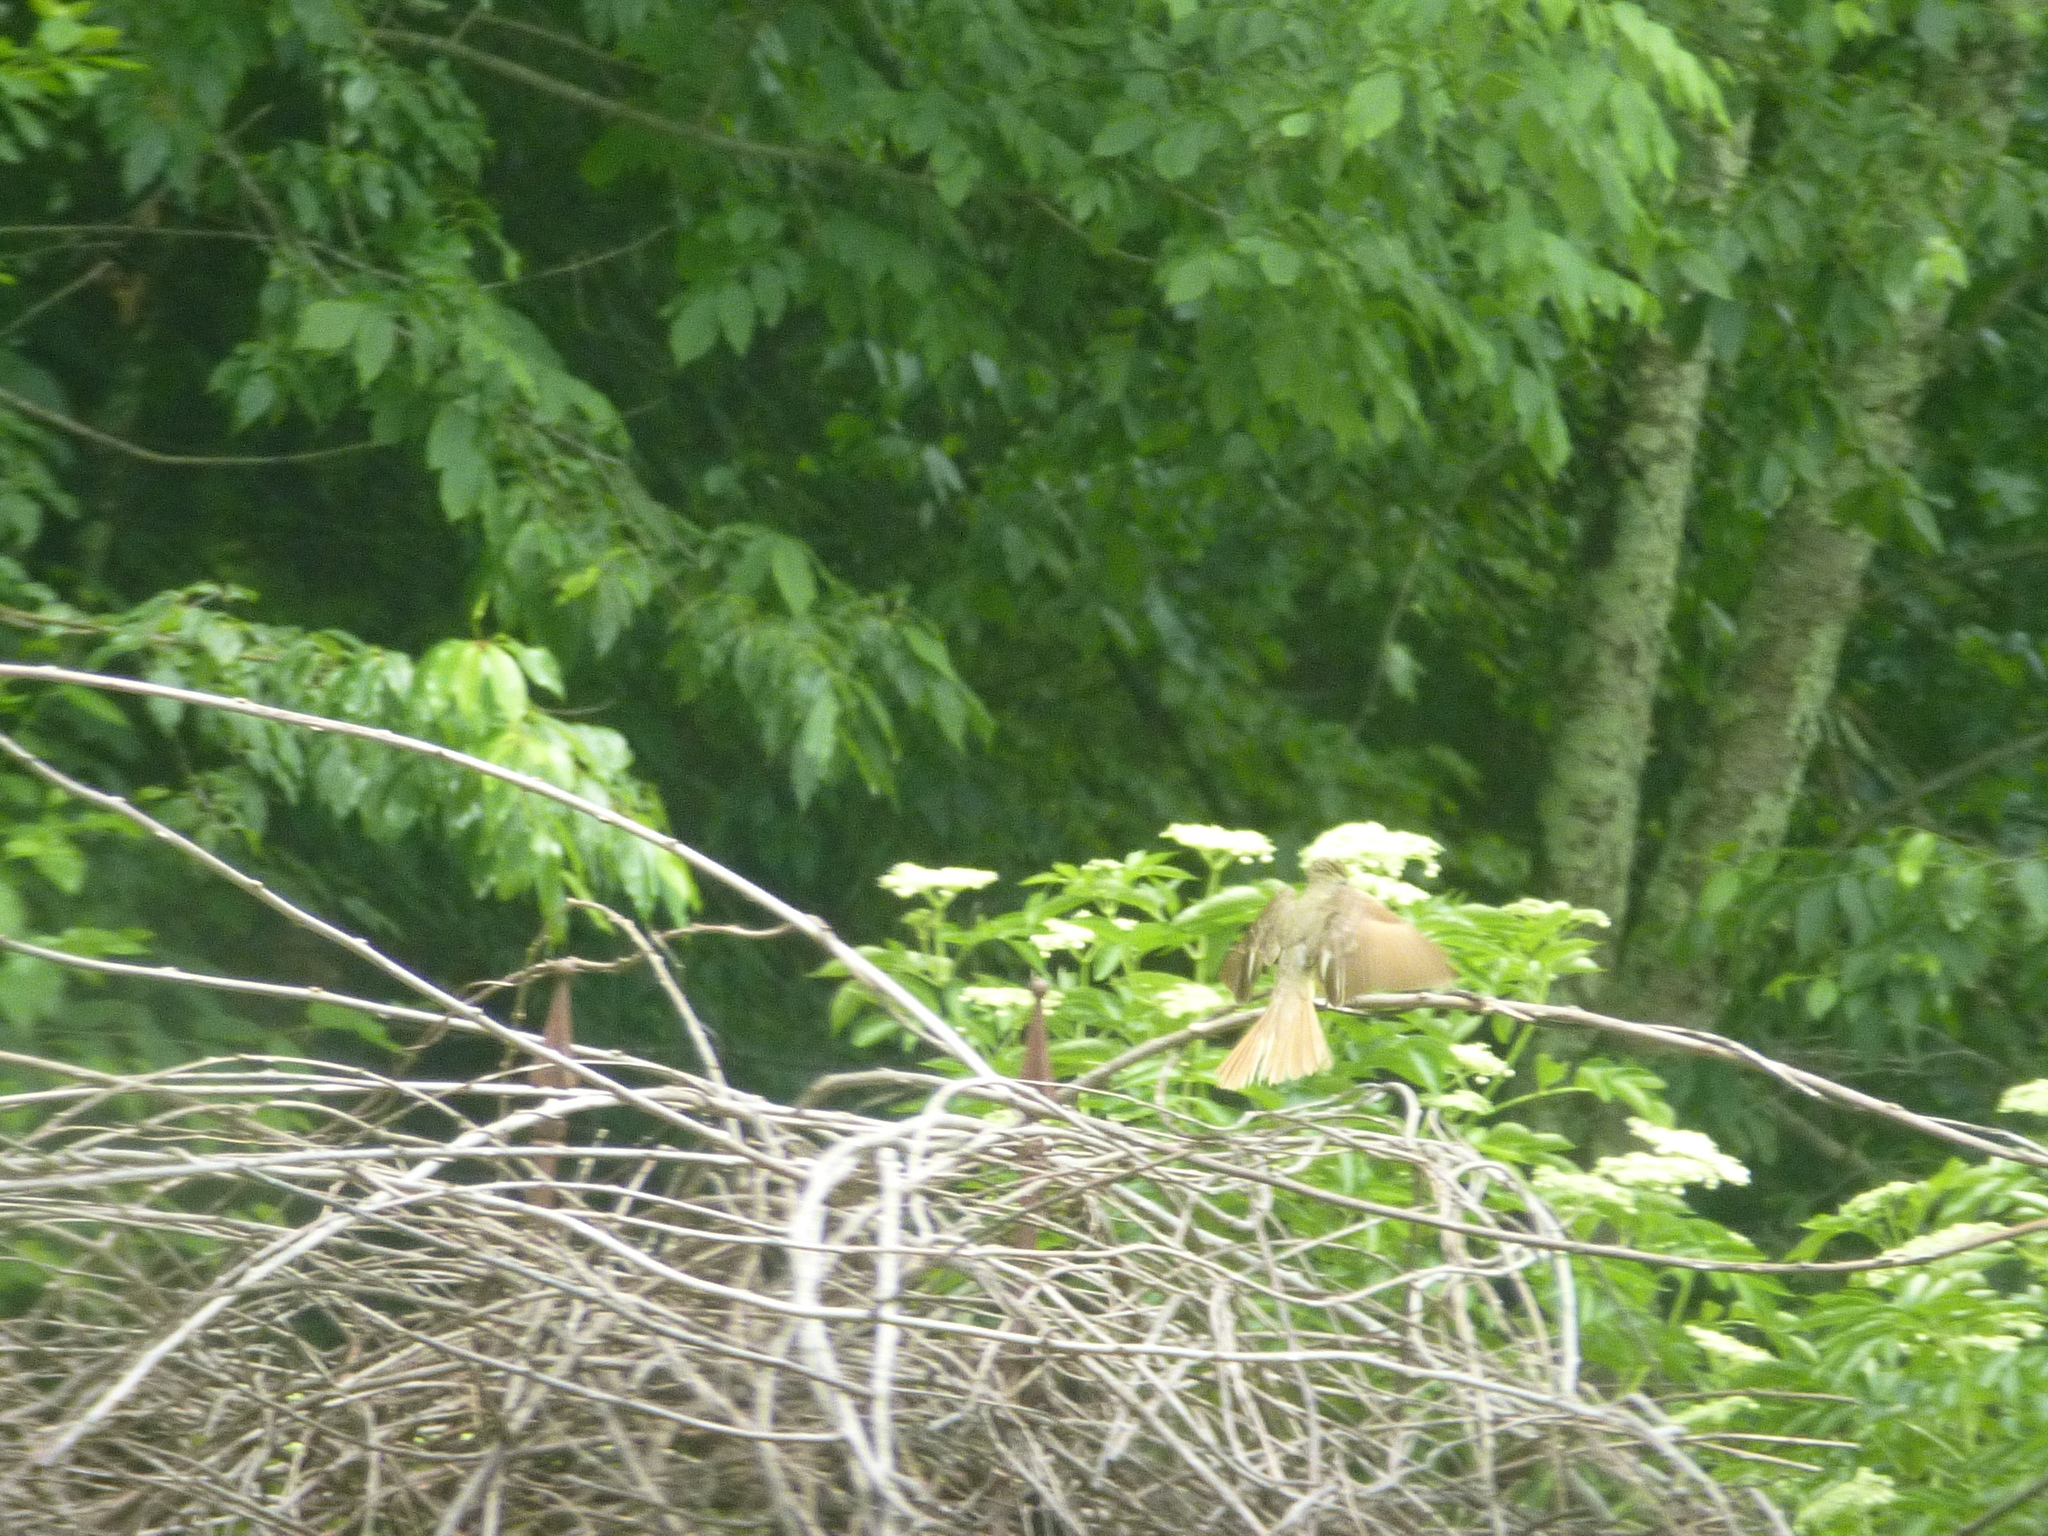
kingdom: Animalia
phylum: Chordata
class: Aves
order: Passeriformes
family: Tyrannidae
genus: Myiarchus
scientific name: Myiarchus crinitus
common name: Great crested flycatcher
